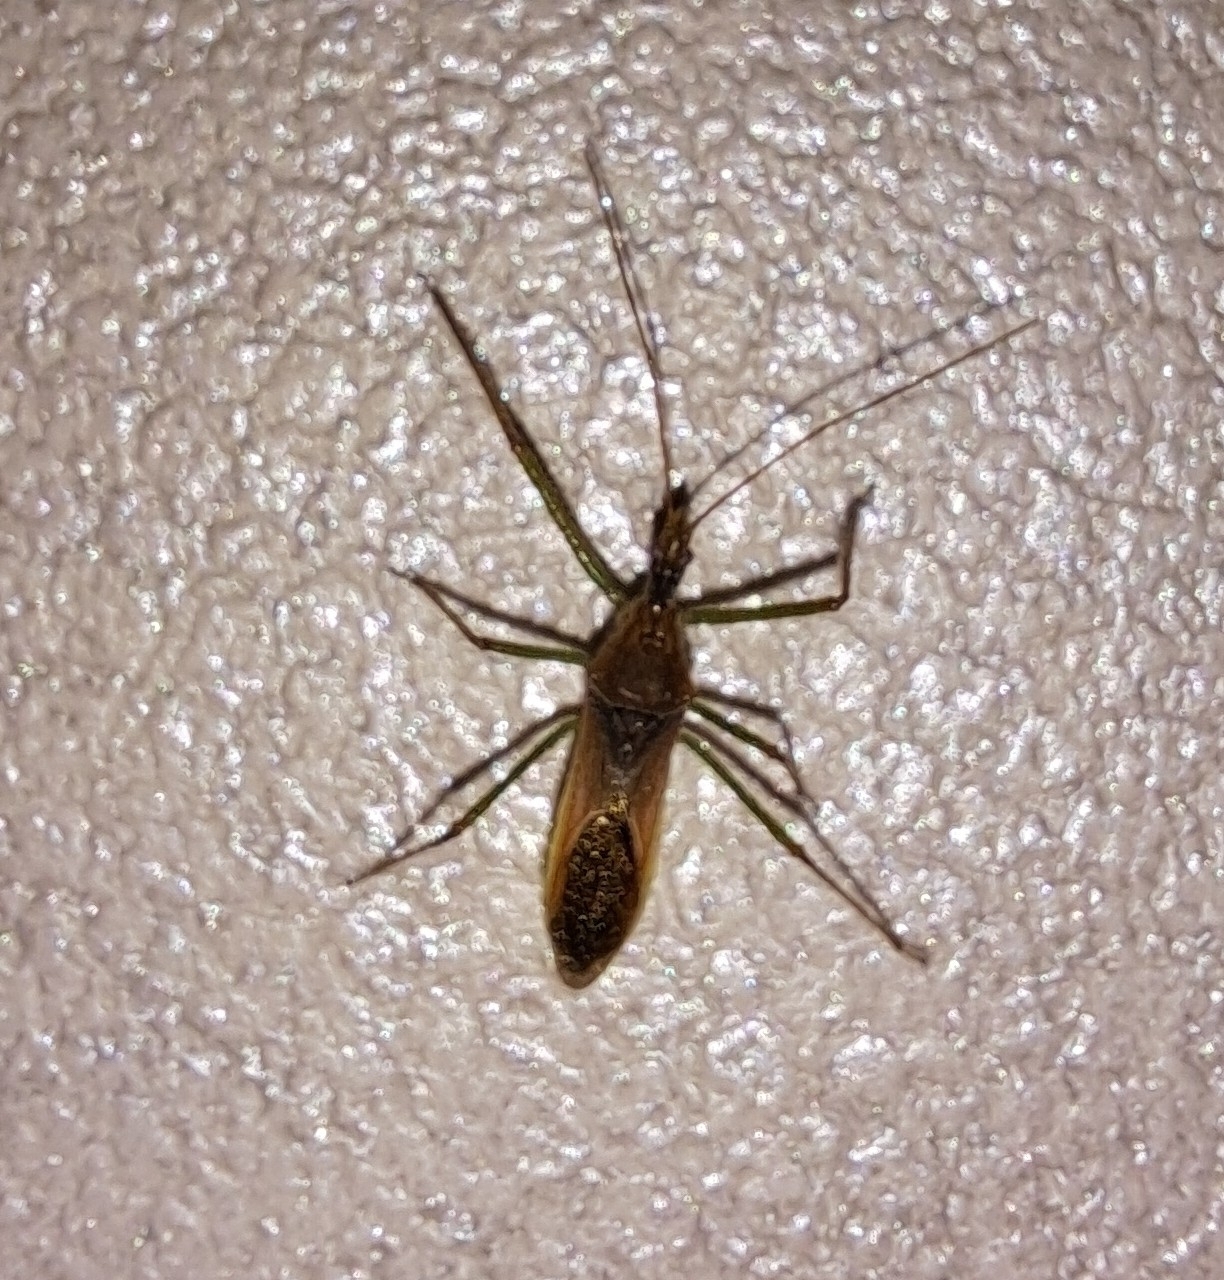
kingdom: Animalia
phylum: Arthropoda
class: Insecta
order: Hemiptera
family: Reduviidae
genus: Zelus
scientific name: Zelus renardii
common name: Assassin bug
